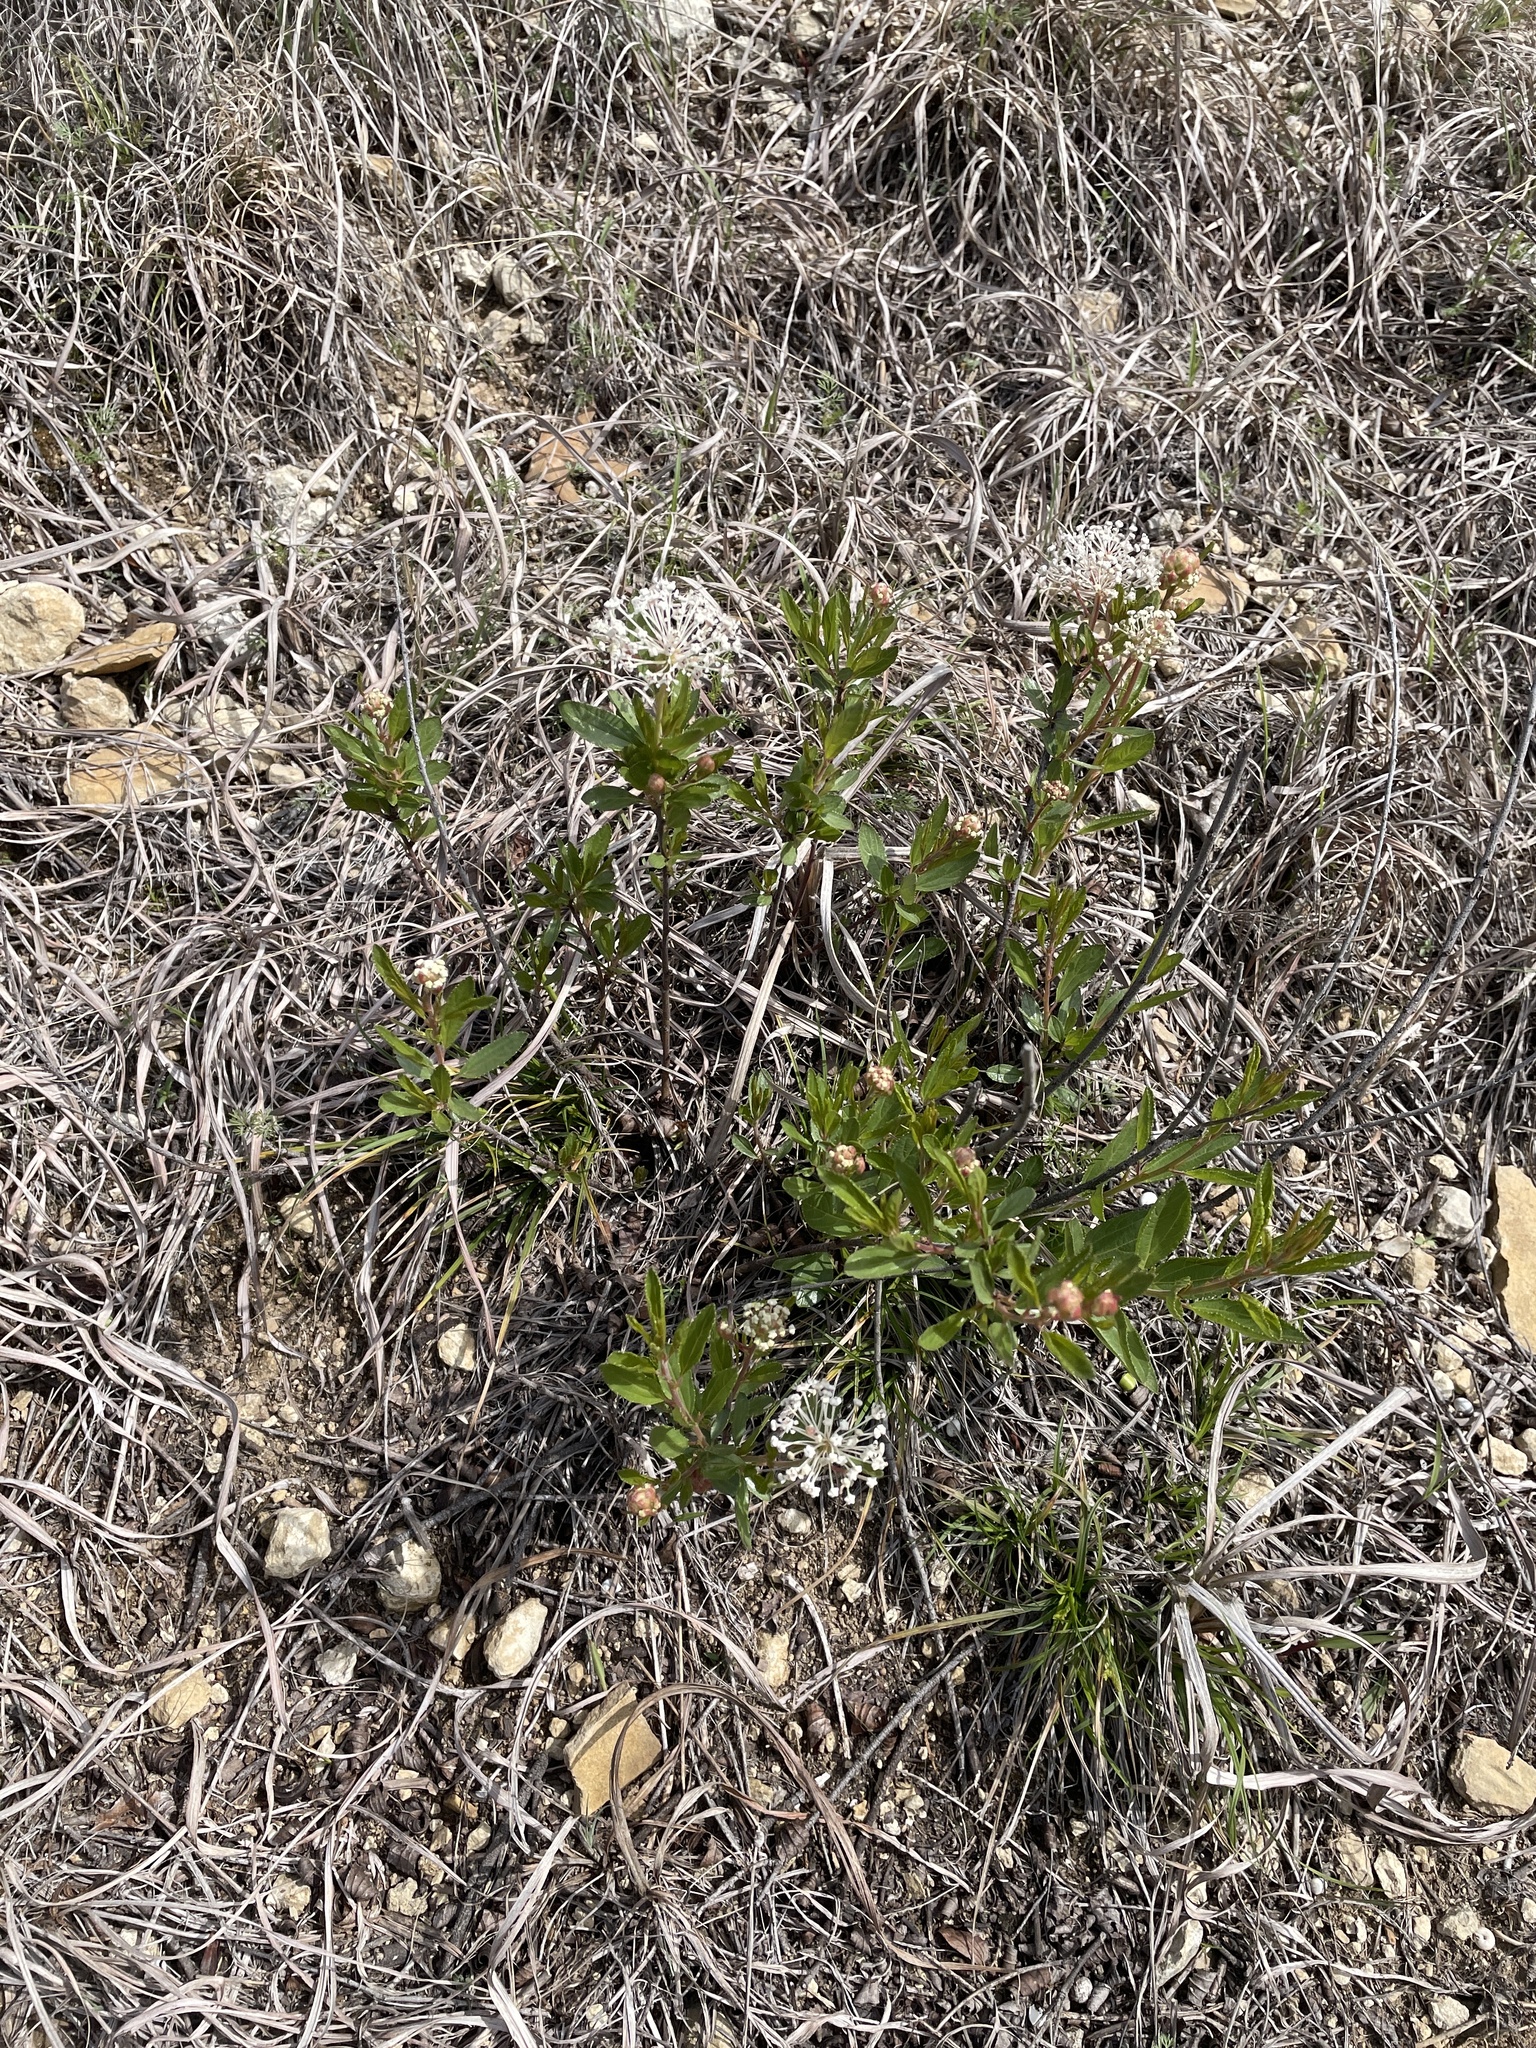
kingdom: Plantae
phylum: Tracheophyta
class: Magnoliopsida
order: Rosales
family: Rhamnaceae
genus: Ceanothus
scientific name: Ceanothus herbaceus
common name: Inland ceanothus
